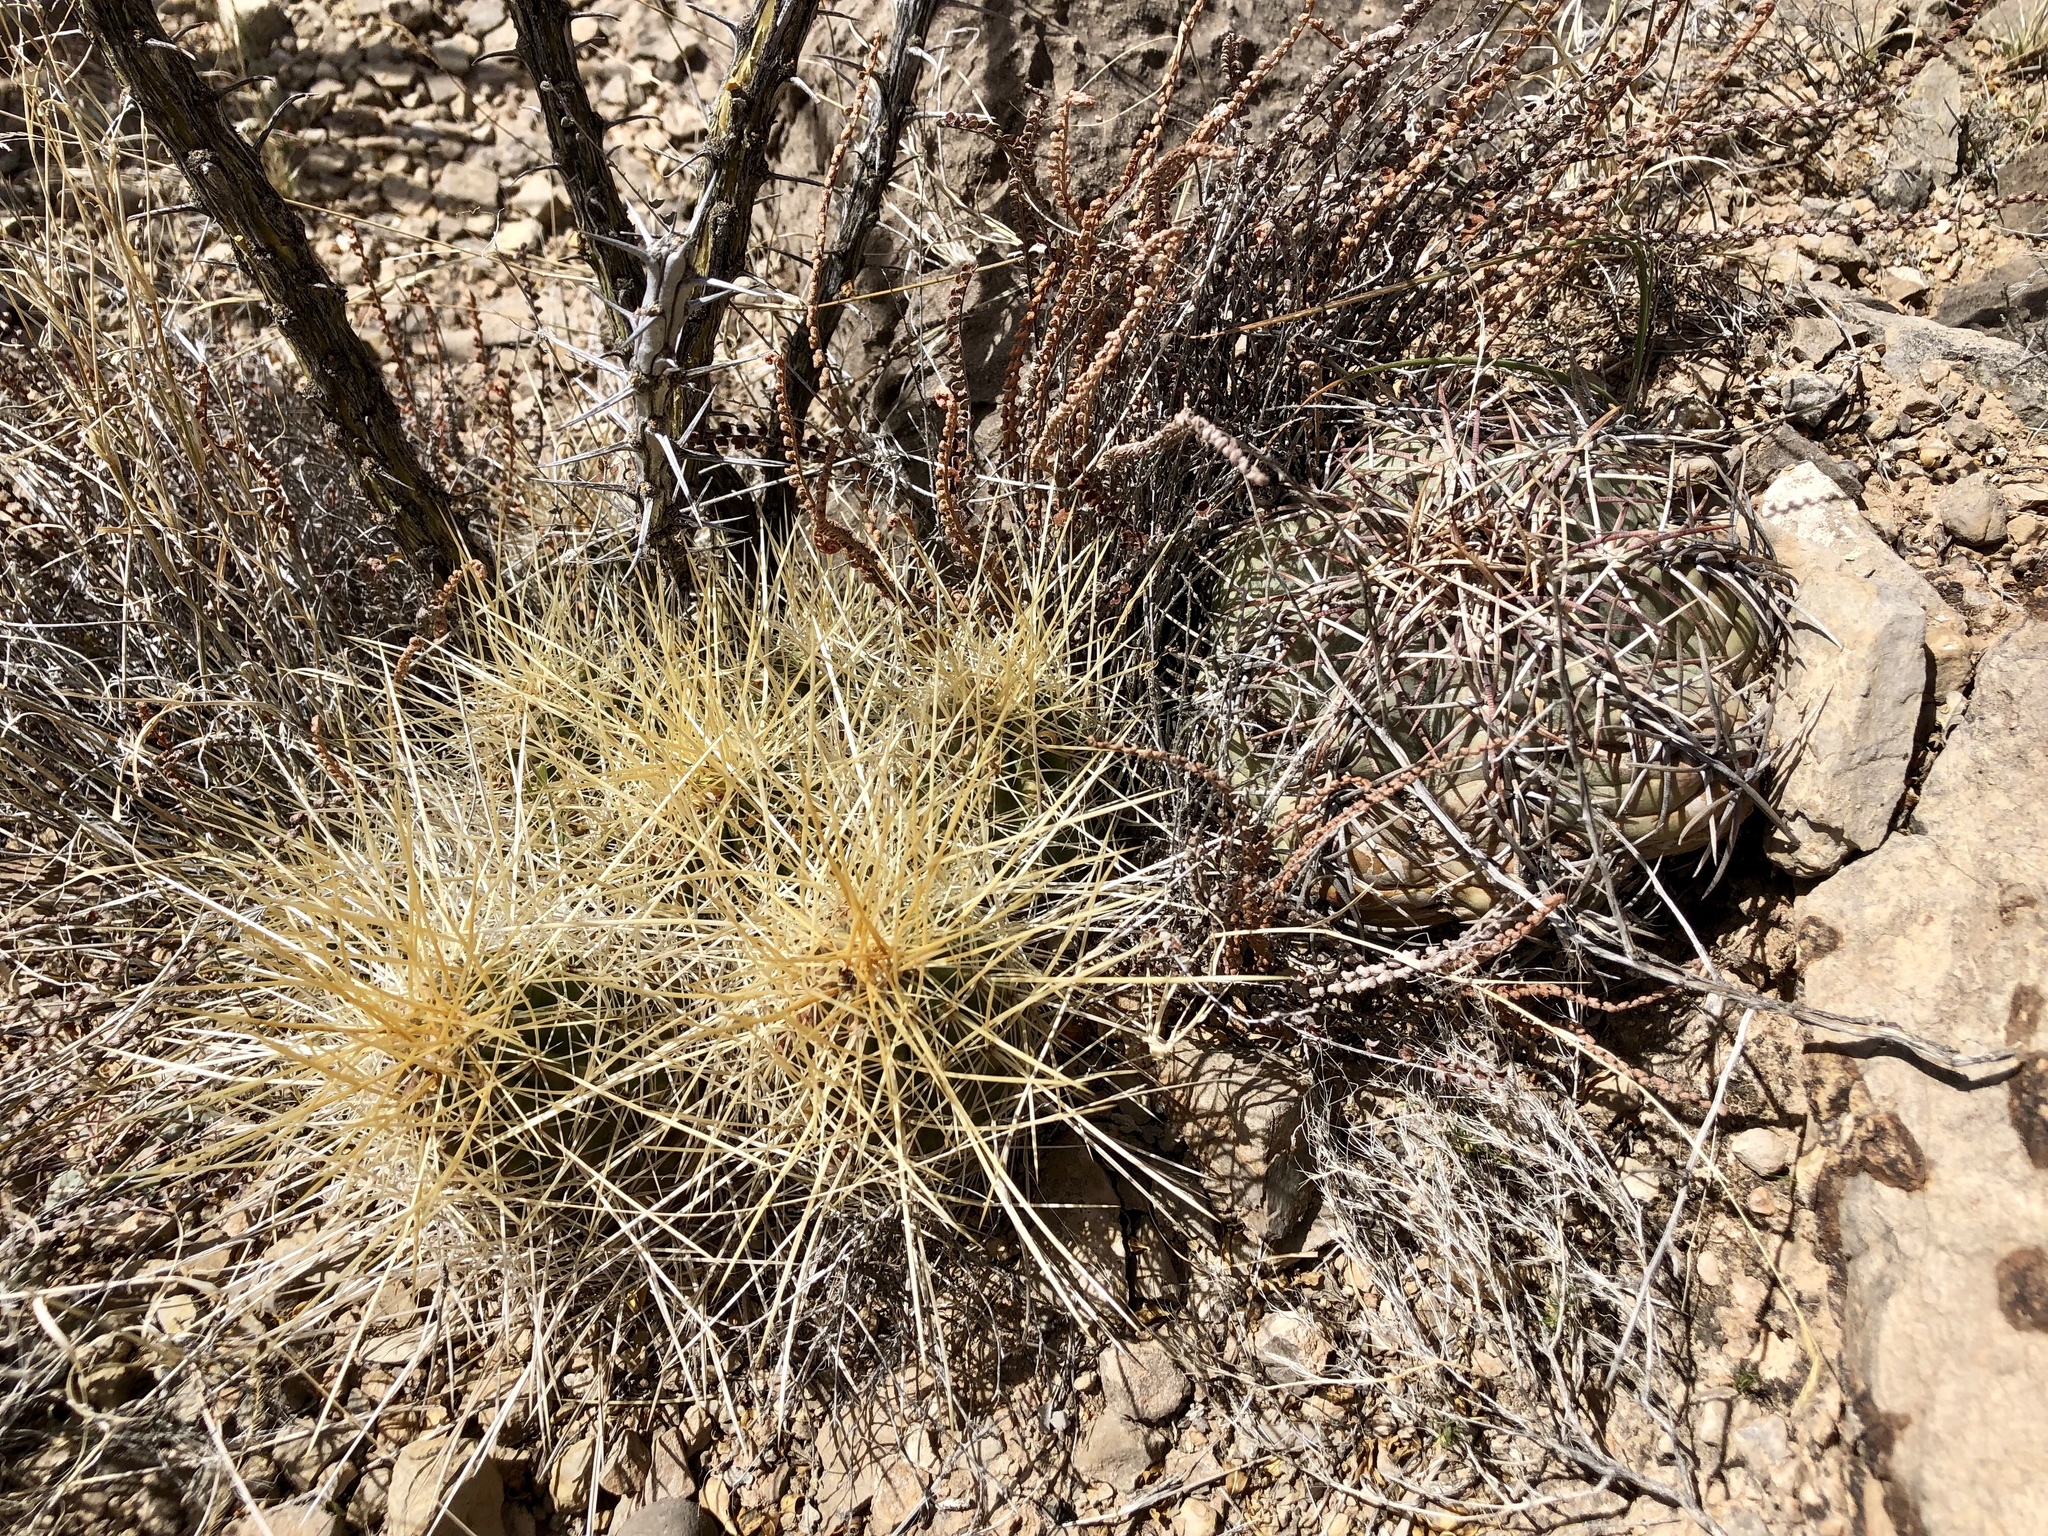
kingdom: Plantae
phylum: Tracheophyta
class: Magnoliopsida
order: Caryophyllales
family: Cactaceae
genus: Echinocereus
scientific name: Echinocereus stramineus
